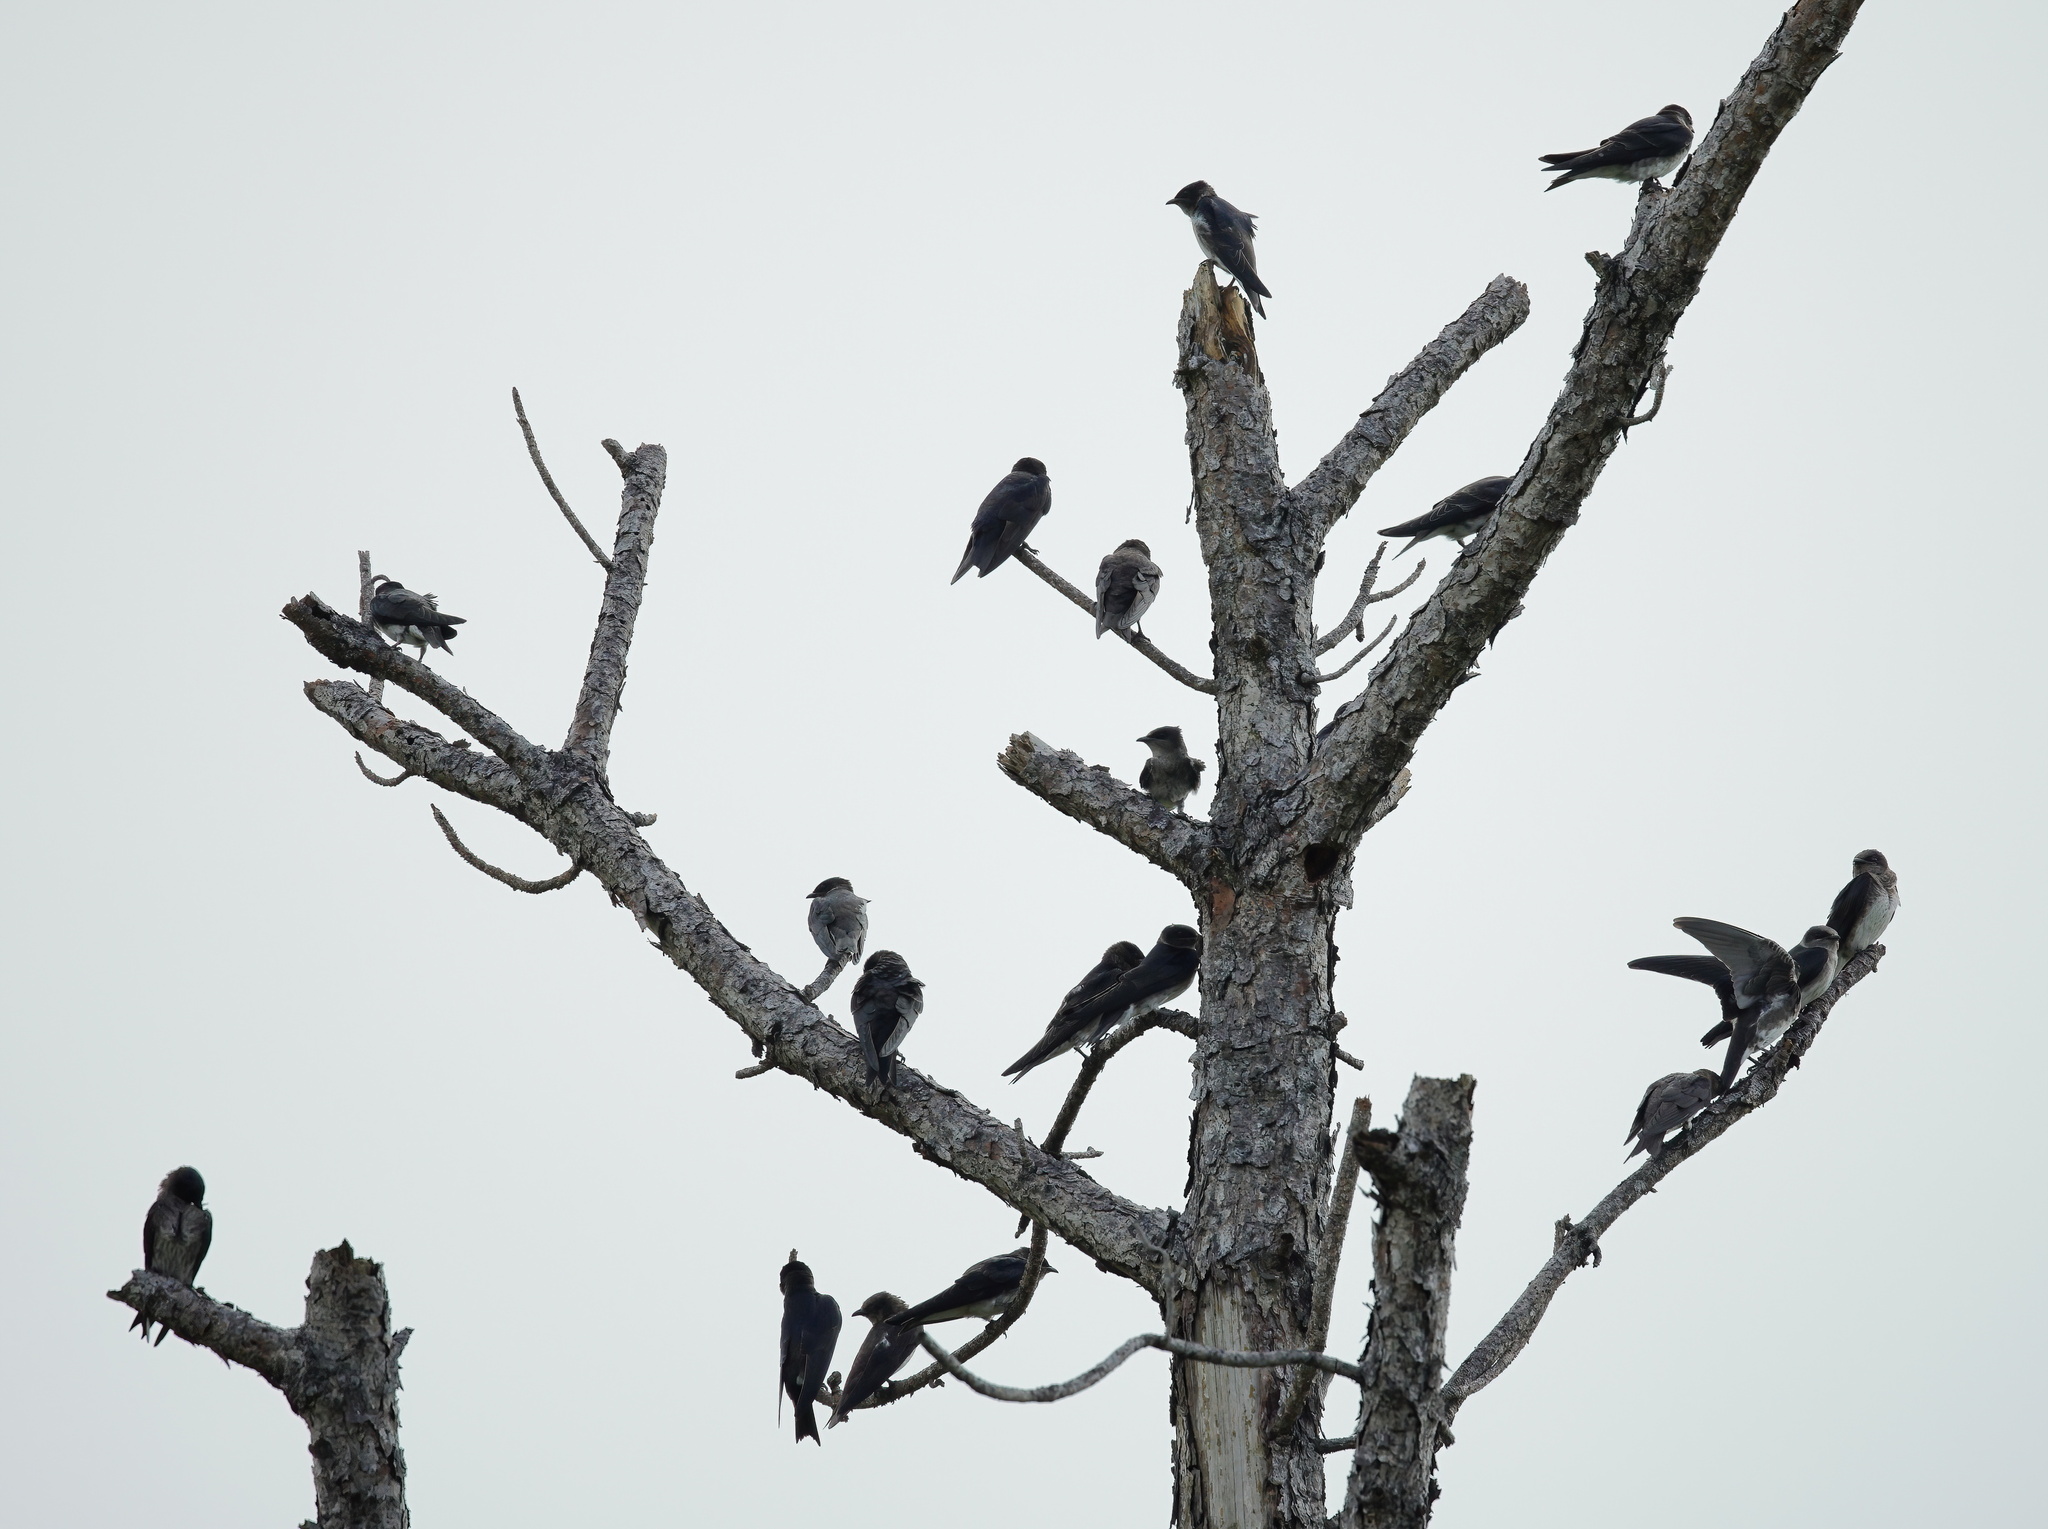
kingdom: Animalia
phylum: Chordata
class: Aves
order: Passeriformes
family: Hirundinidae
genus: Progne
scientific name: Progne subis
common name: Purple martin
